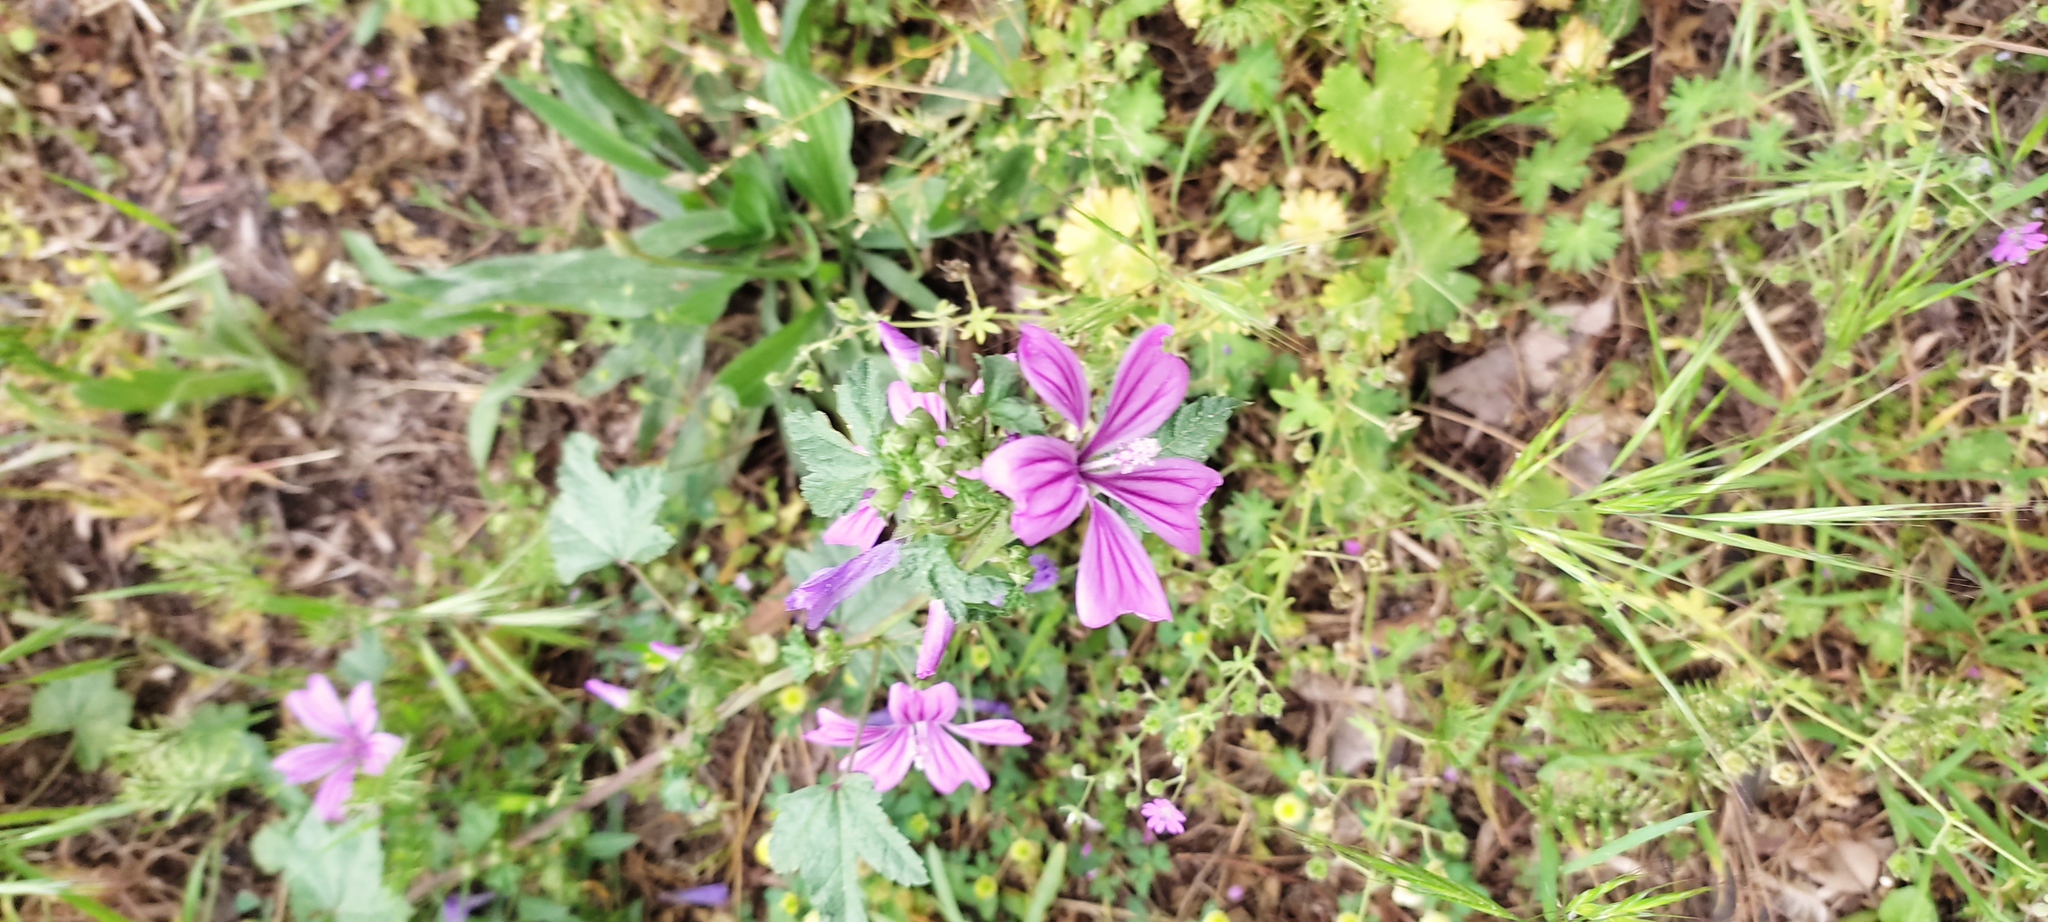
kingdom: Plantae
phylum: Tracheophyta
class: Magnoliopsida
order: Malvales
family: Malvaceae
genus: Malva
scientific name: Malva sylvestris
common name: Common mallow
